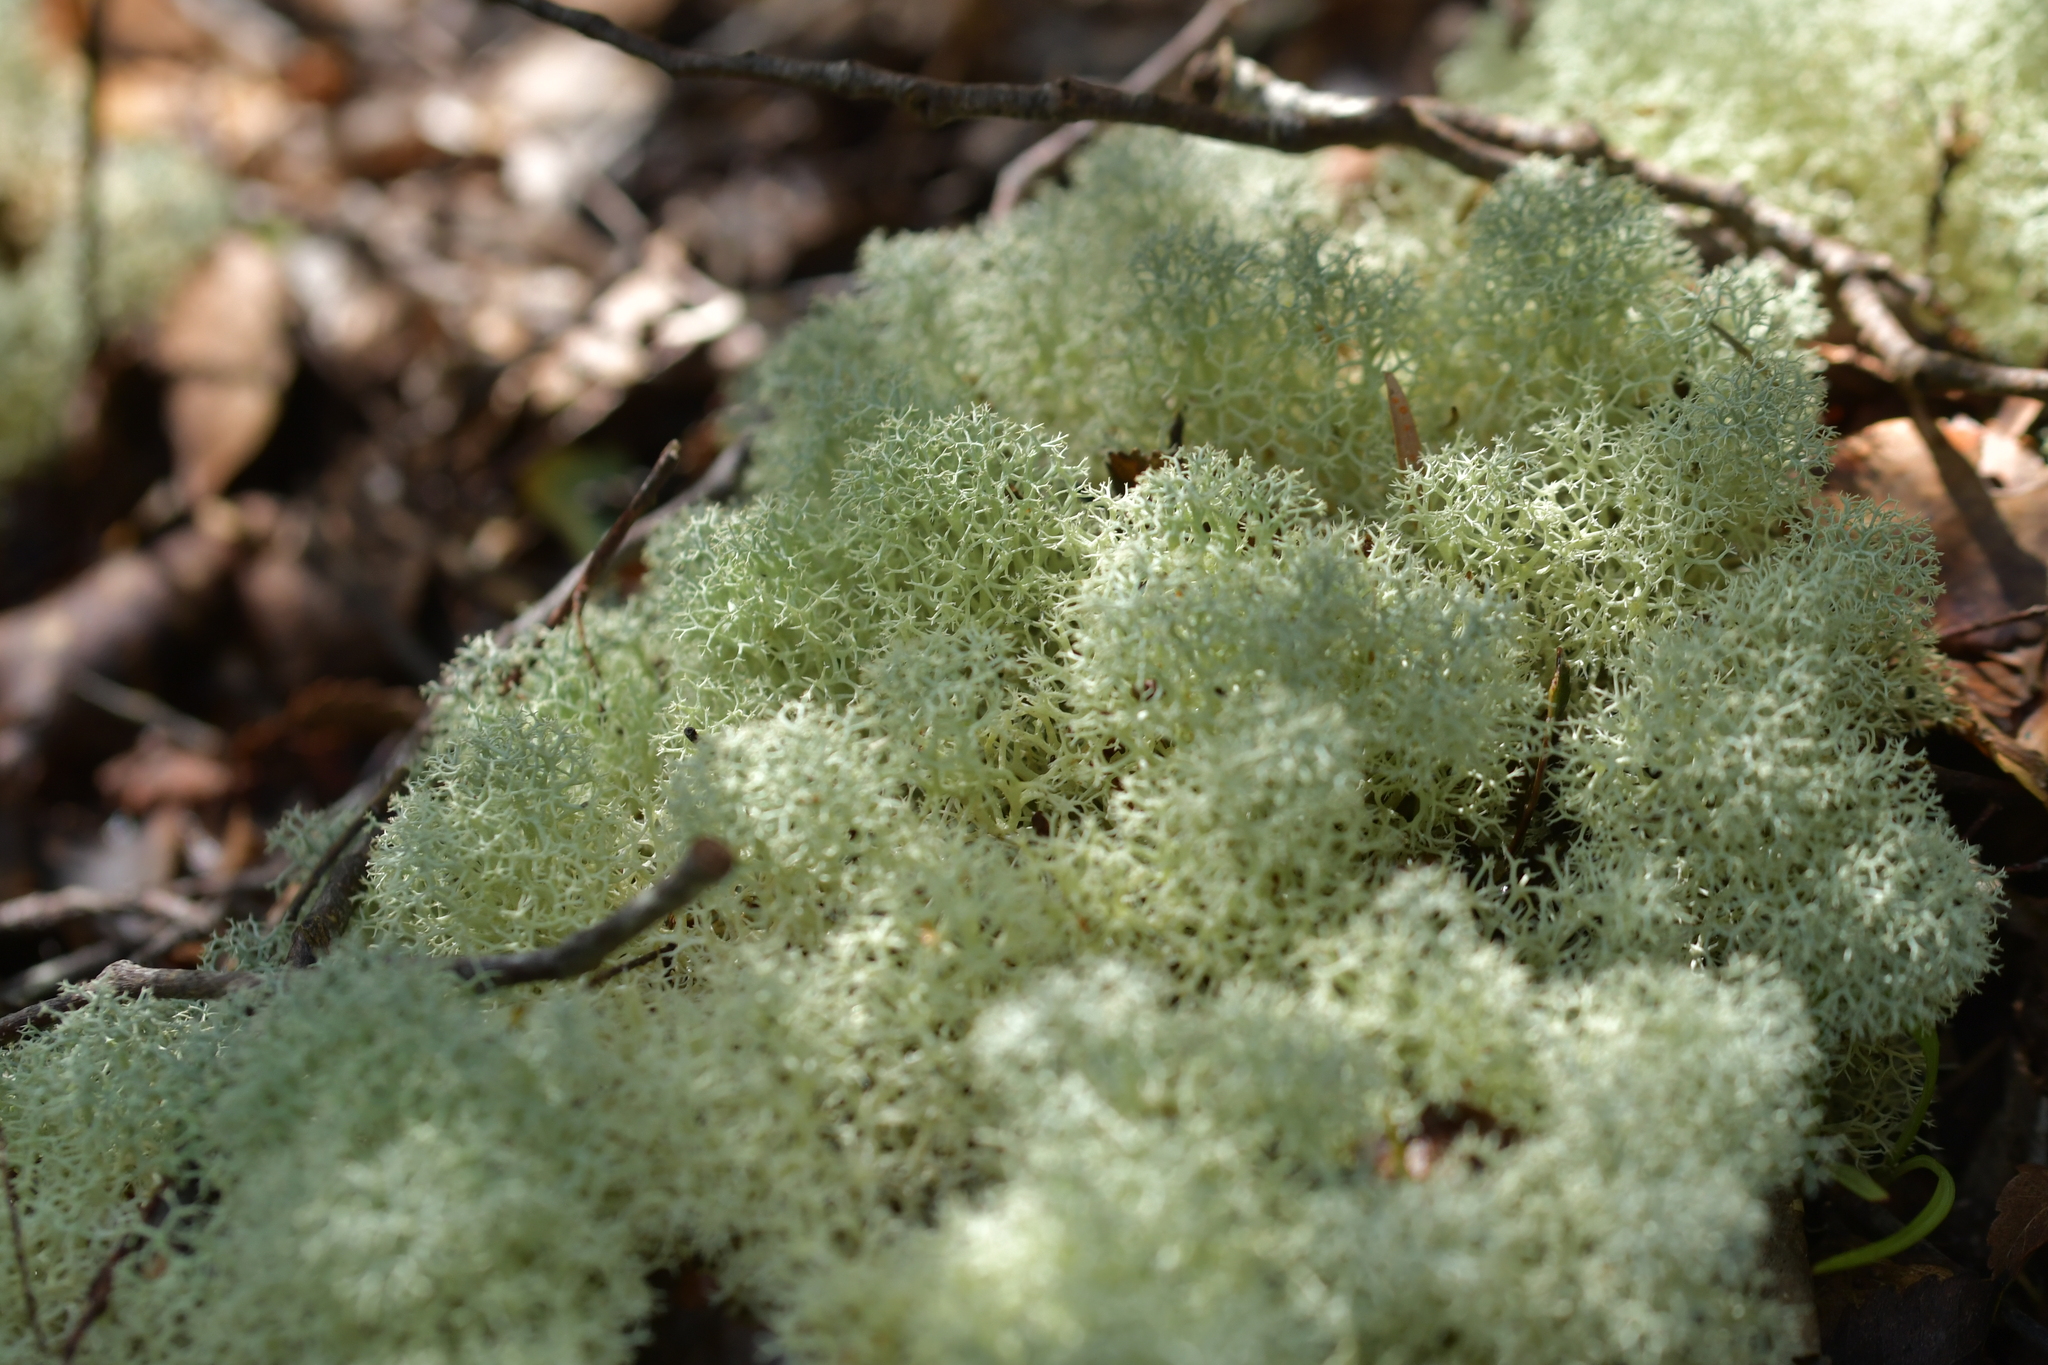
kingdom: Fungi
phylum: Ascomycota
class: Lecanoromycetes
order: Lecanorales
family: Cladoniaceae
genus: Cladonia
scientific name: Cladonia confusa
